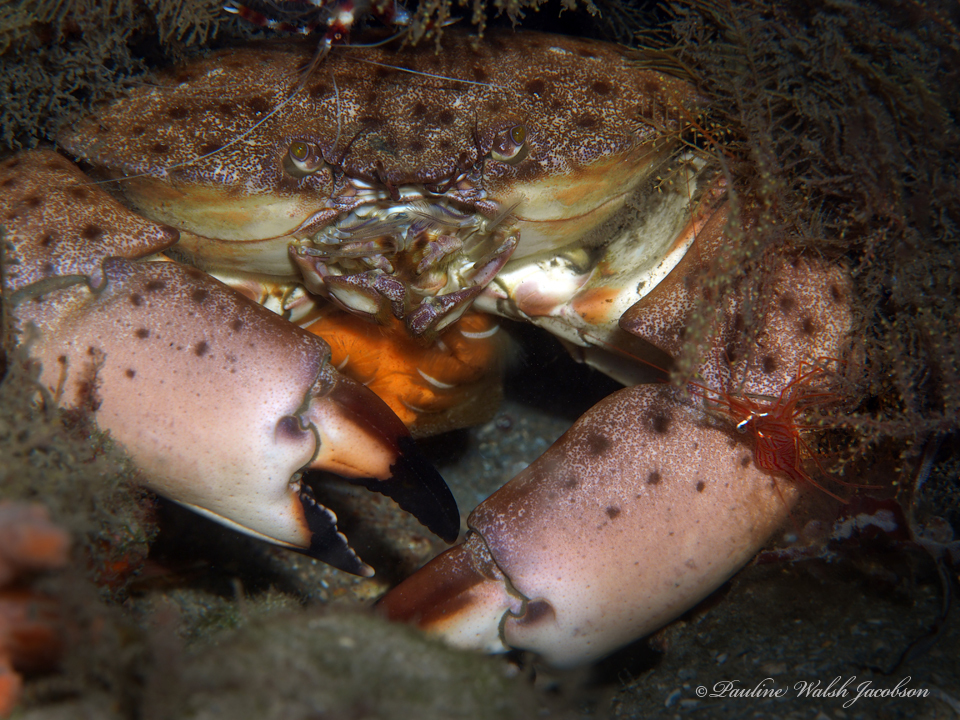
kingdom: Animalia
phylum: Arthropoda
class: Malacostraca
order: Decapoda
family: Menippidae
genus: Menippe
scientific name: Menippe mercenaria
